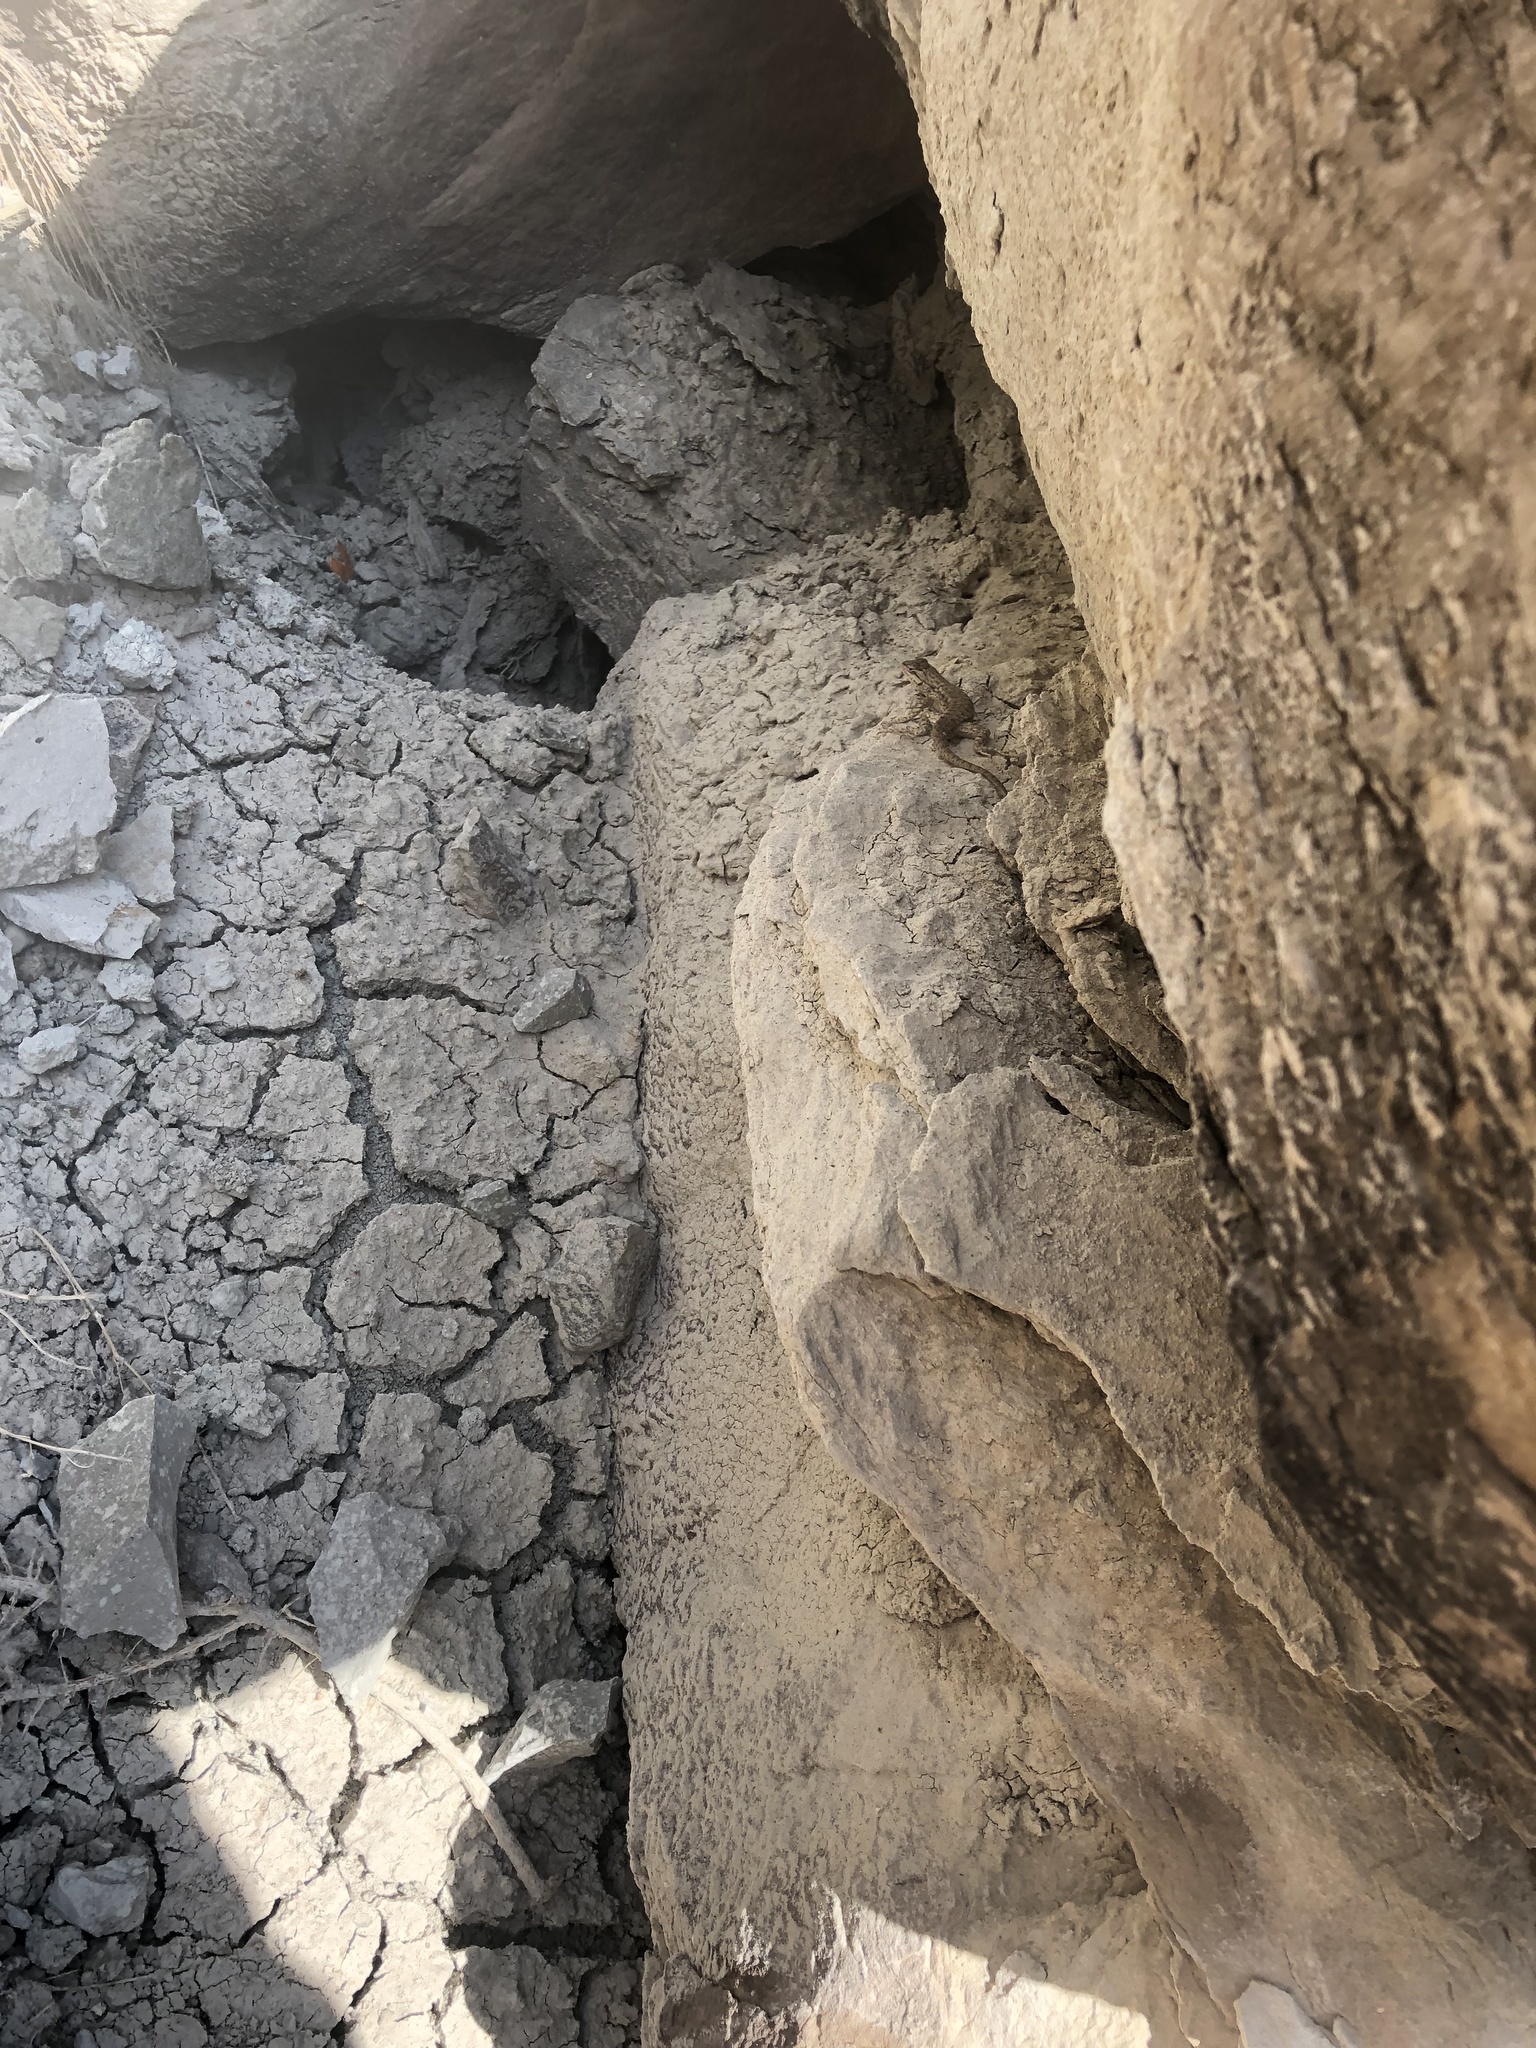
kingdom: Animalia
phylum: Chordata
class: Squamata
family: Phrynosomatidae
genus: Sceloporus
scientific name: Sceloporus tristichus
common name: Plateau fence lizard
